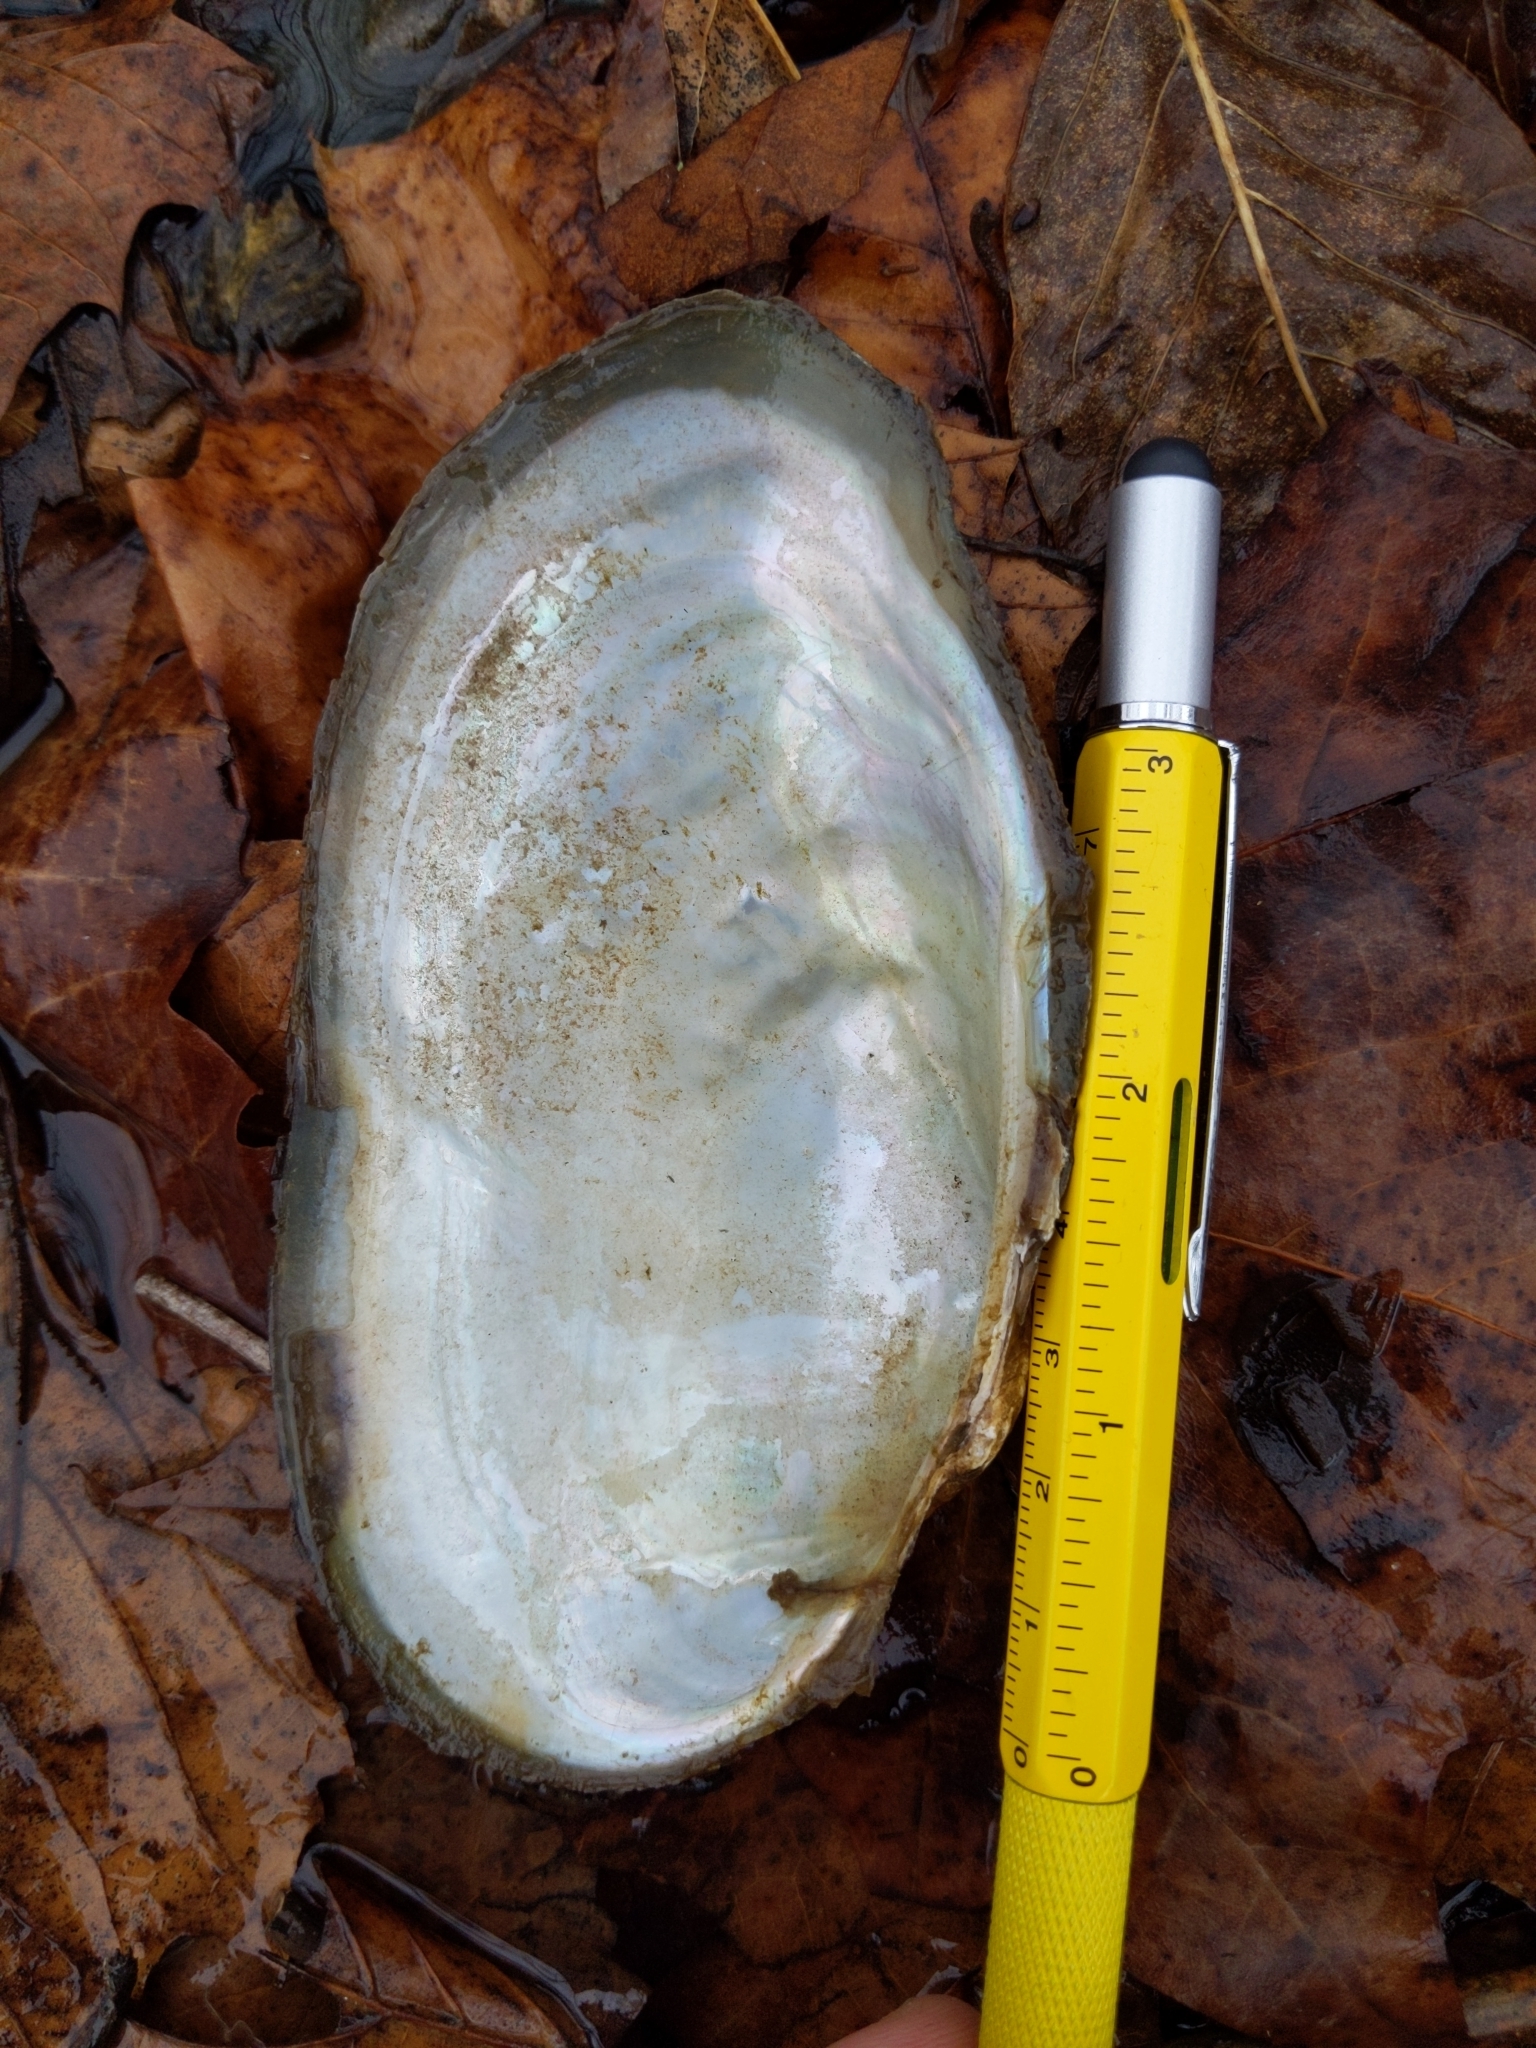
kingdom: Animalia
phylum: Mollusca
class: Bivalvia
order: Unionida
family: Unionidae
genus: Pyganodon
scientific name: Pyganodon grandis
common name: Giant floater
